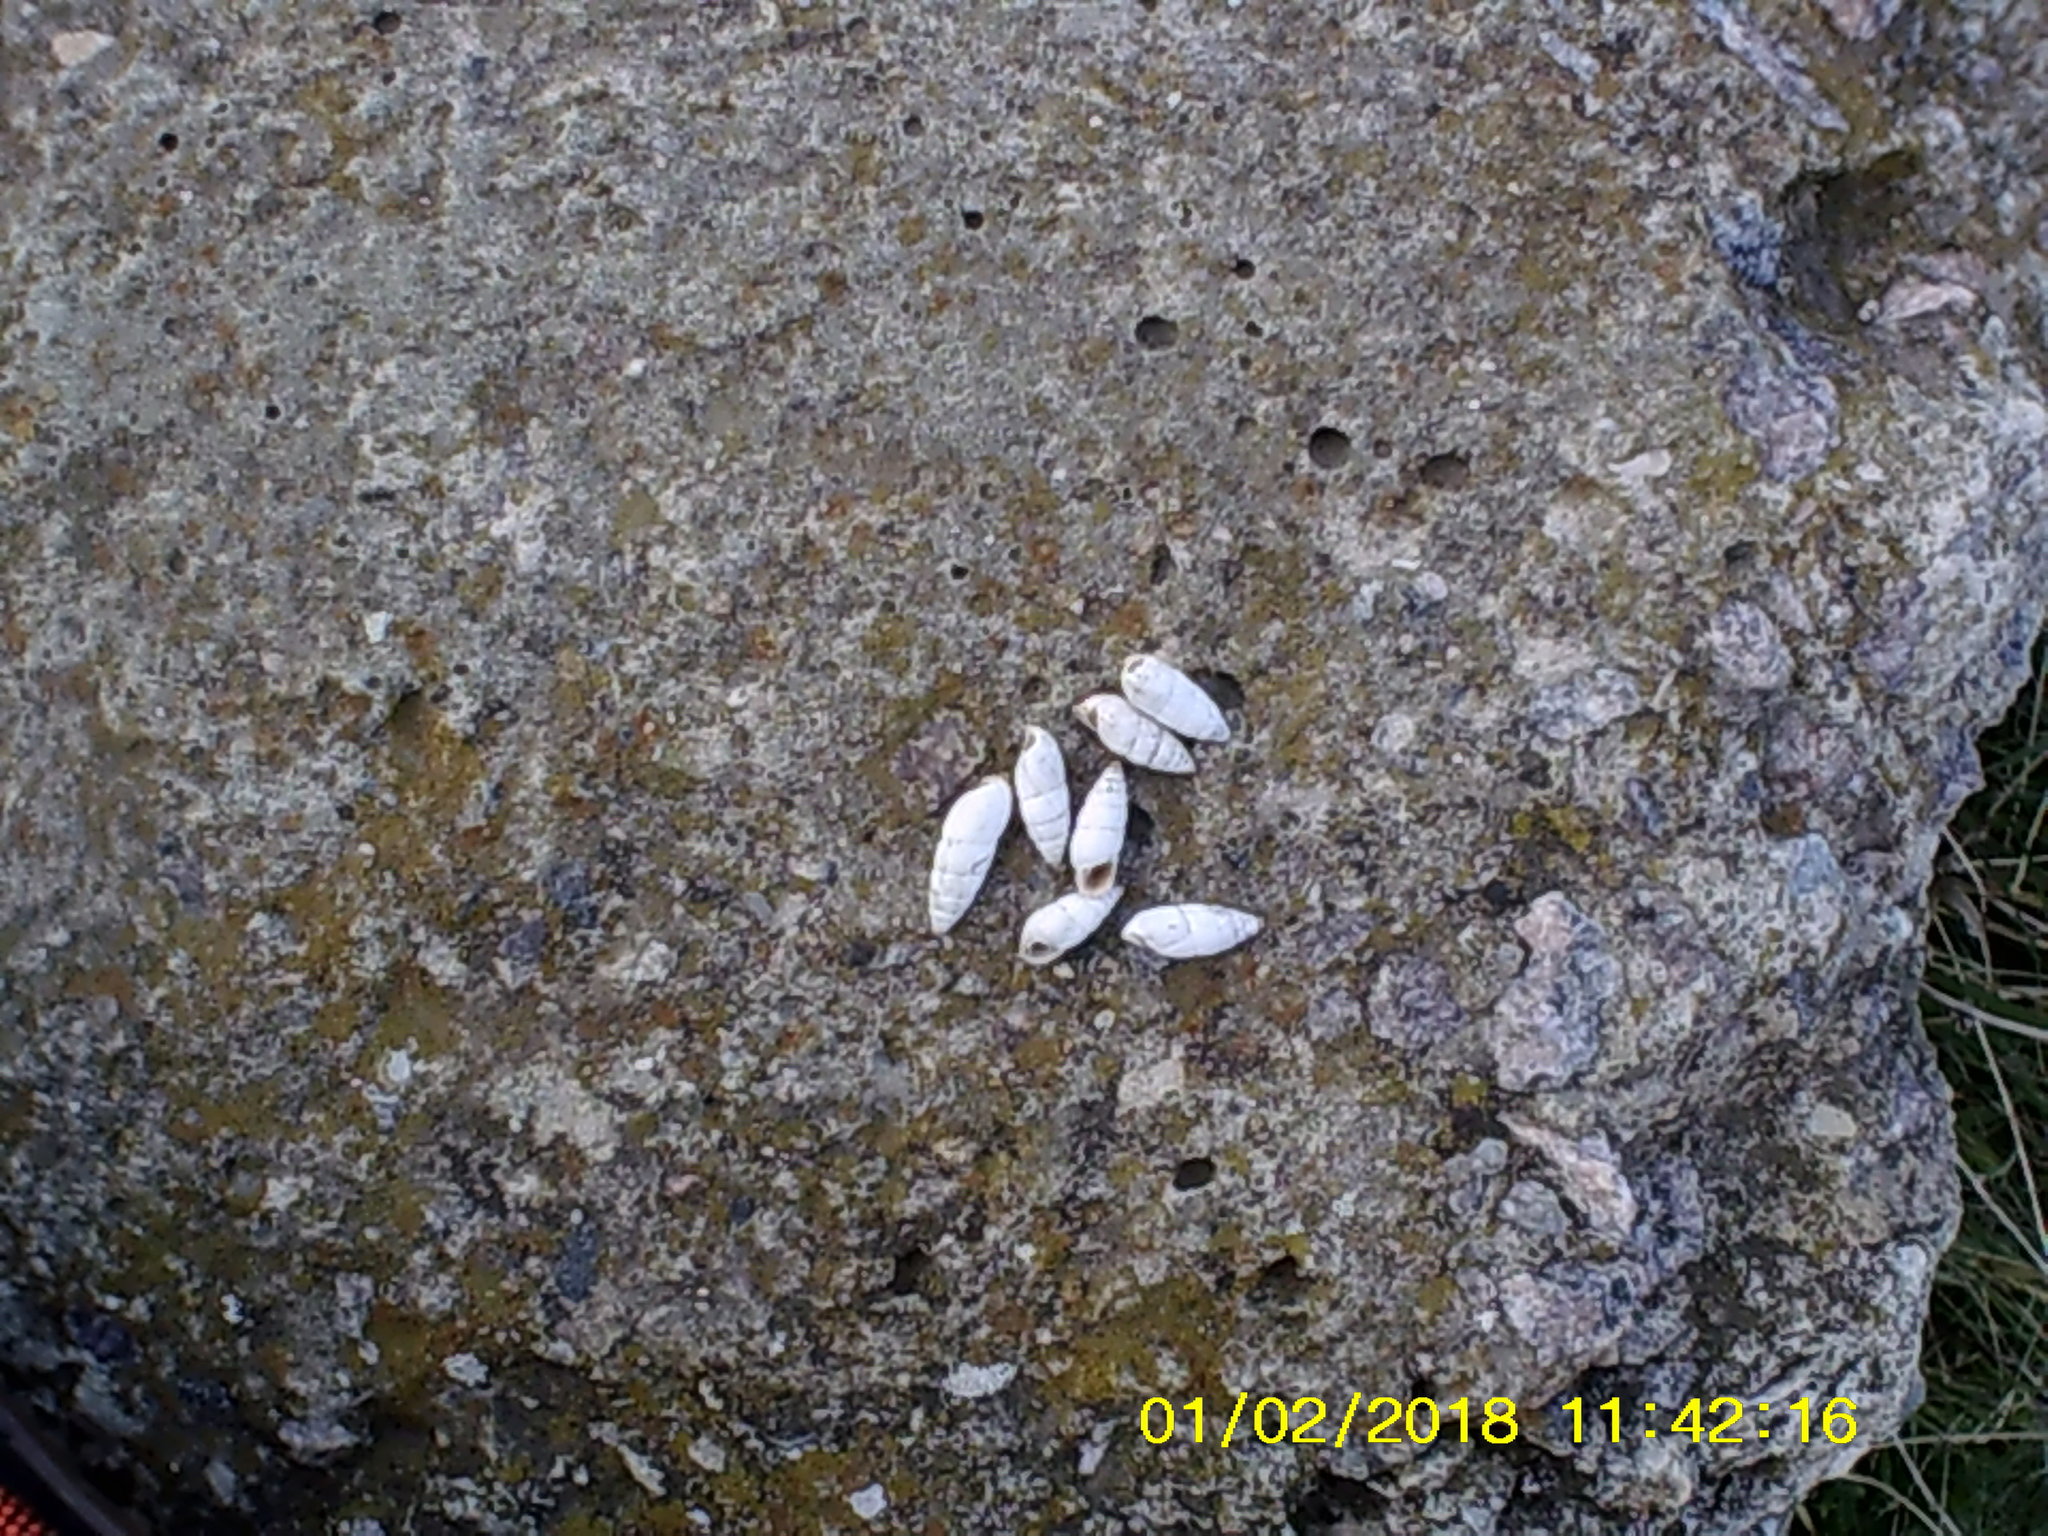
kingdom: Animalia
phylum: Mollusca
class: Gastropoda
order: Stylommatophora
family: Enidae
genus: Brephulopsis
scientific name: Brephulopsis cylindrica
